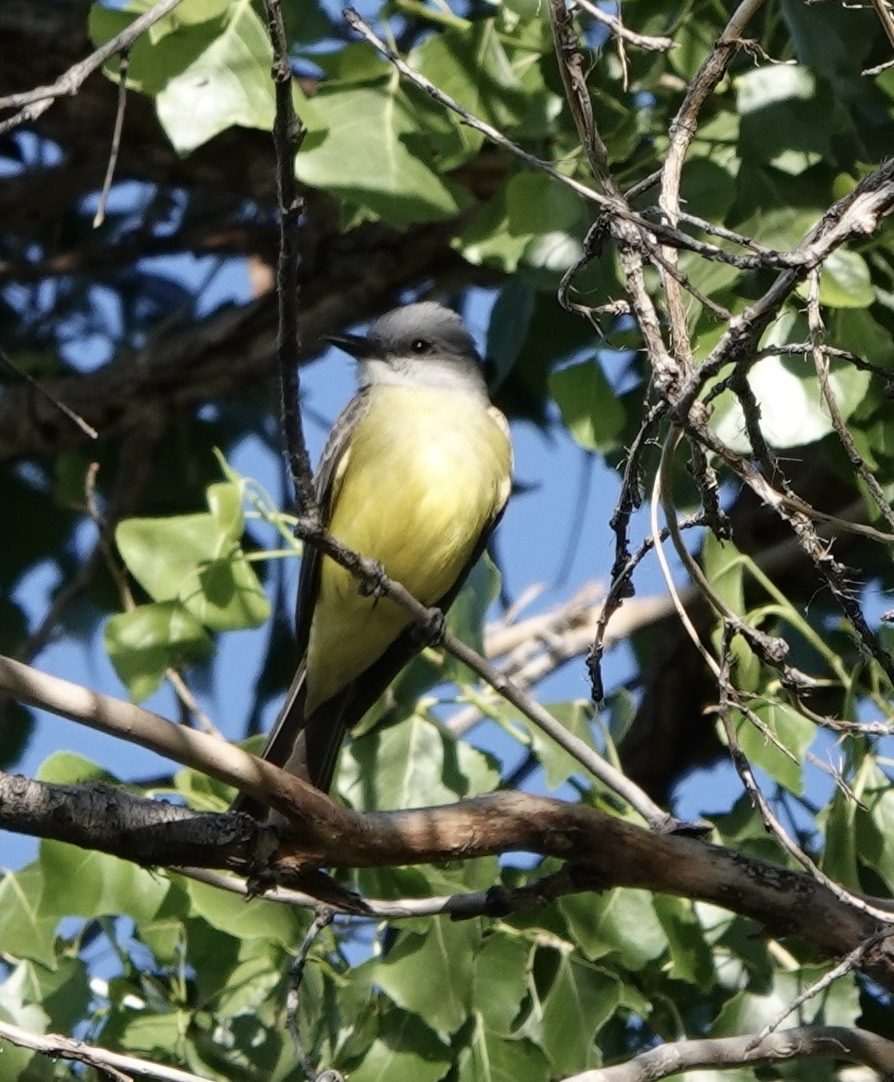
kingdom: Animalia
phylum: Chordata
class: Aves
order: Passeriformes
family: Tyrannidae
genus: Tyrannus
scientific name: Tyrannus melancholicus
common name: Tropical kingbird
